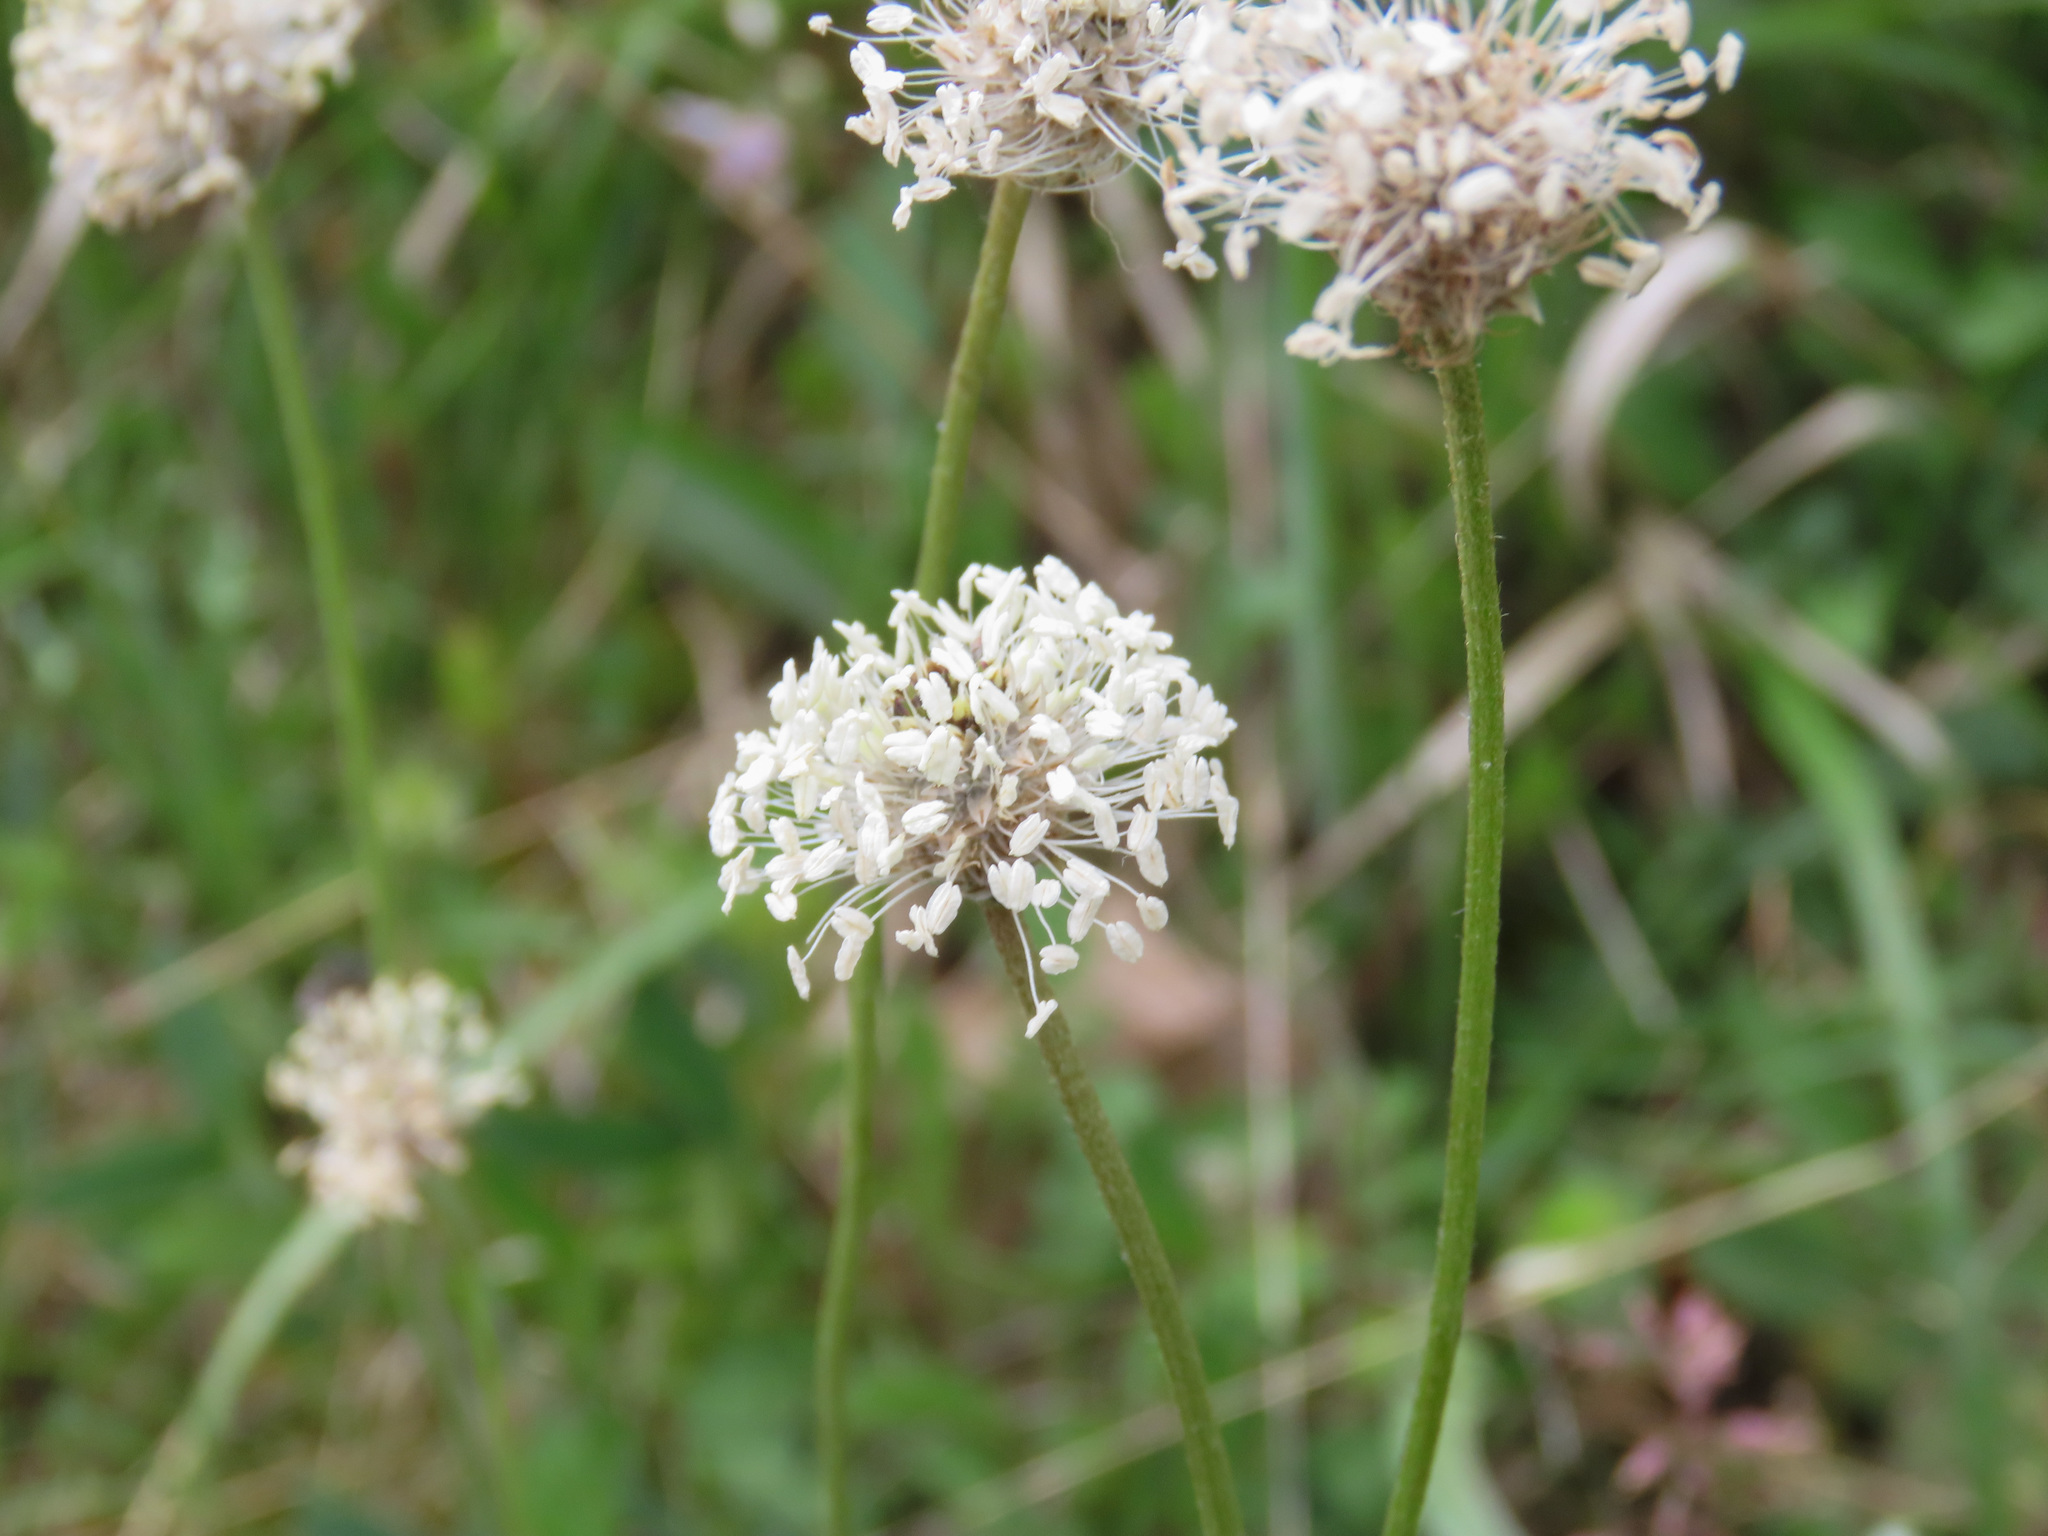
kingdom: Plantae
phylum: Tracheophyta
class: Magnoliopsida
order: Lamiales
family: Plantaginaceae
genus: Plantago
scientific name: Plantago argentea
